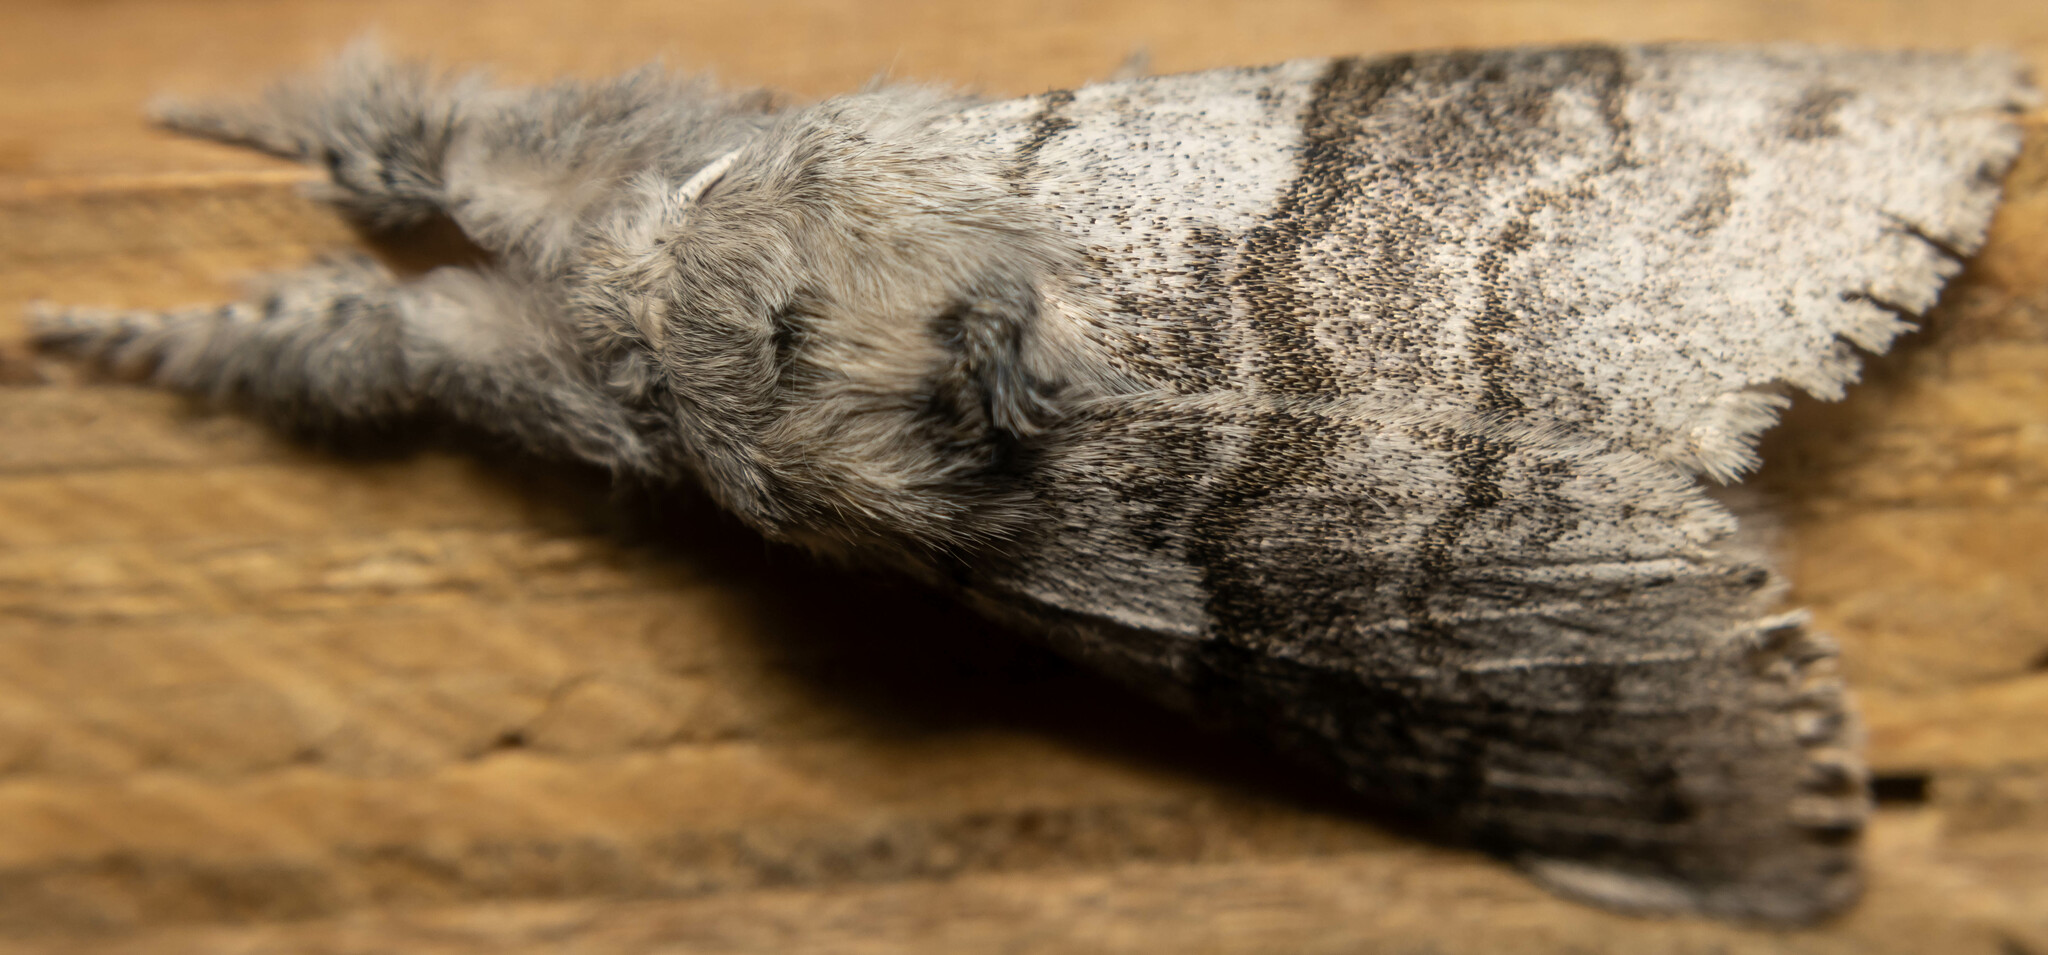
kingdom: Animalia
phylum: Arthropoda
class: Insecta
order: Lepidoptera
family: Erebidae
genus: Calliteara
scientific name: Calliteara pudibunda
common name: Pale tussock
